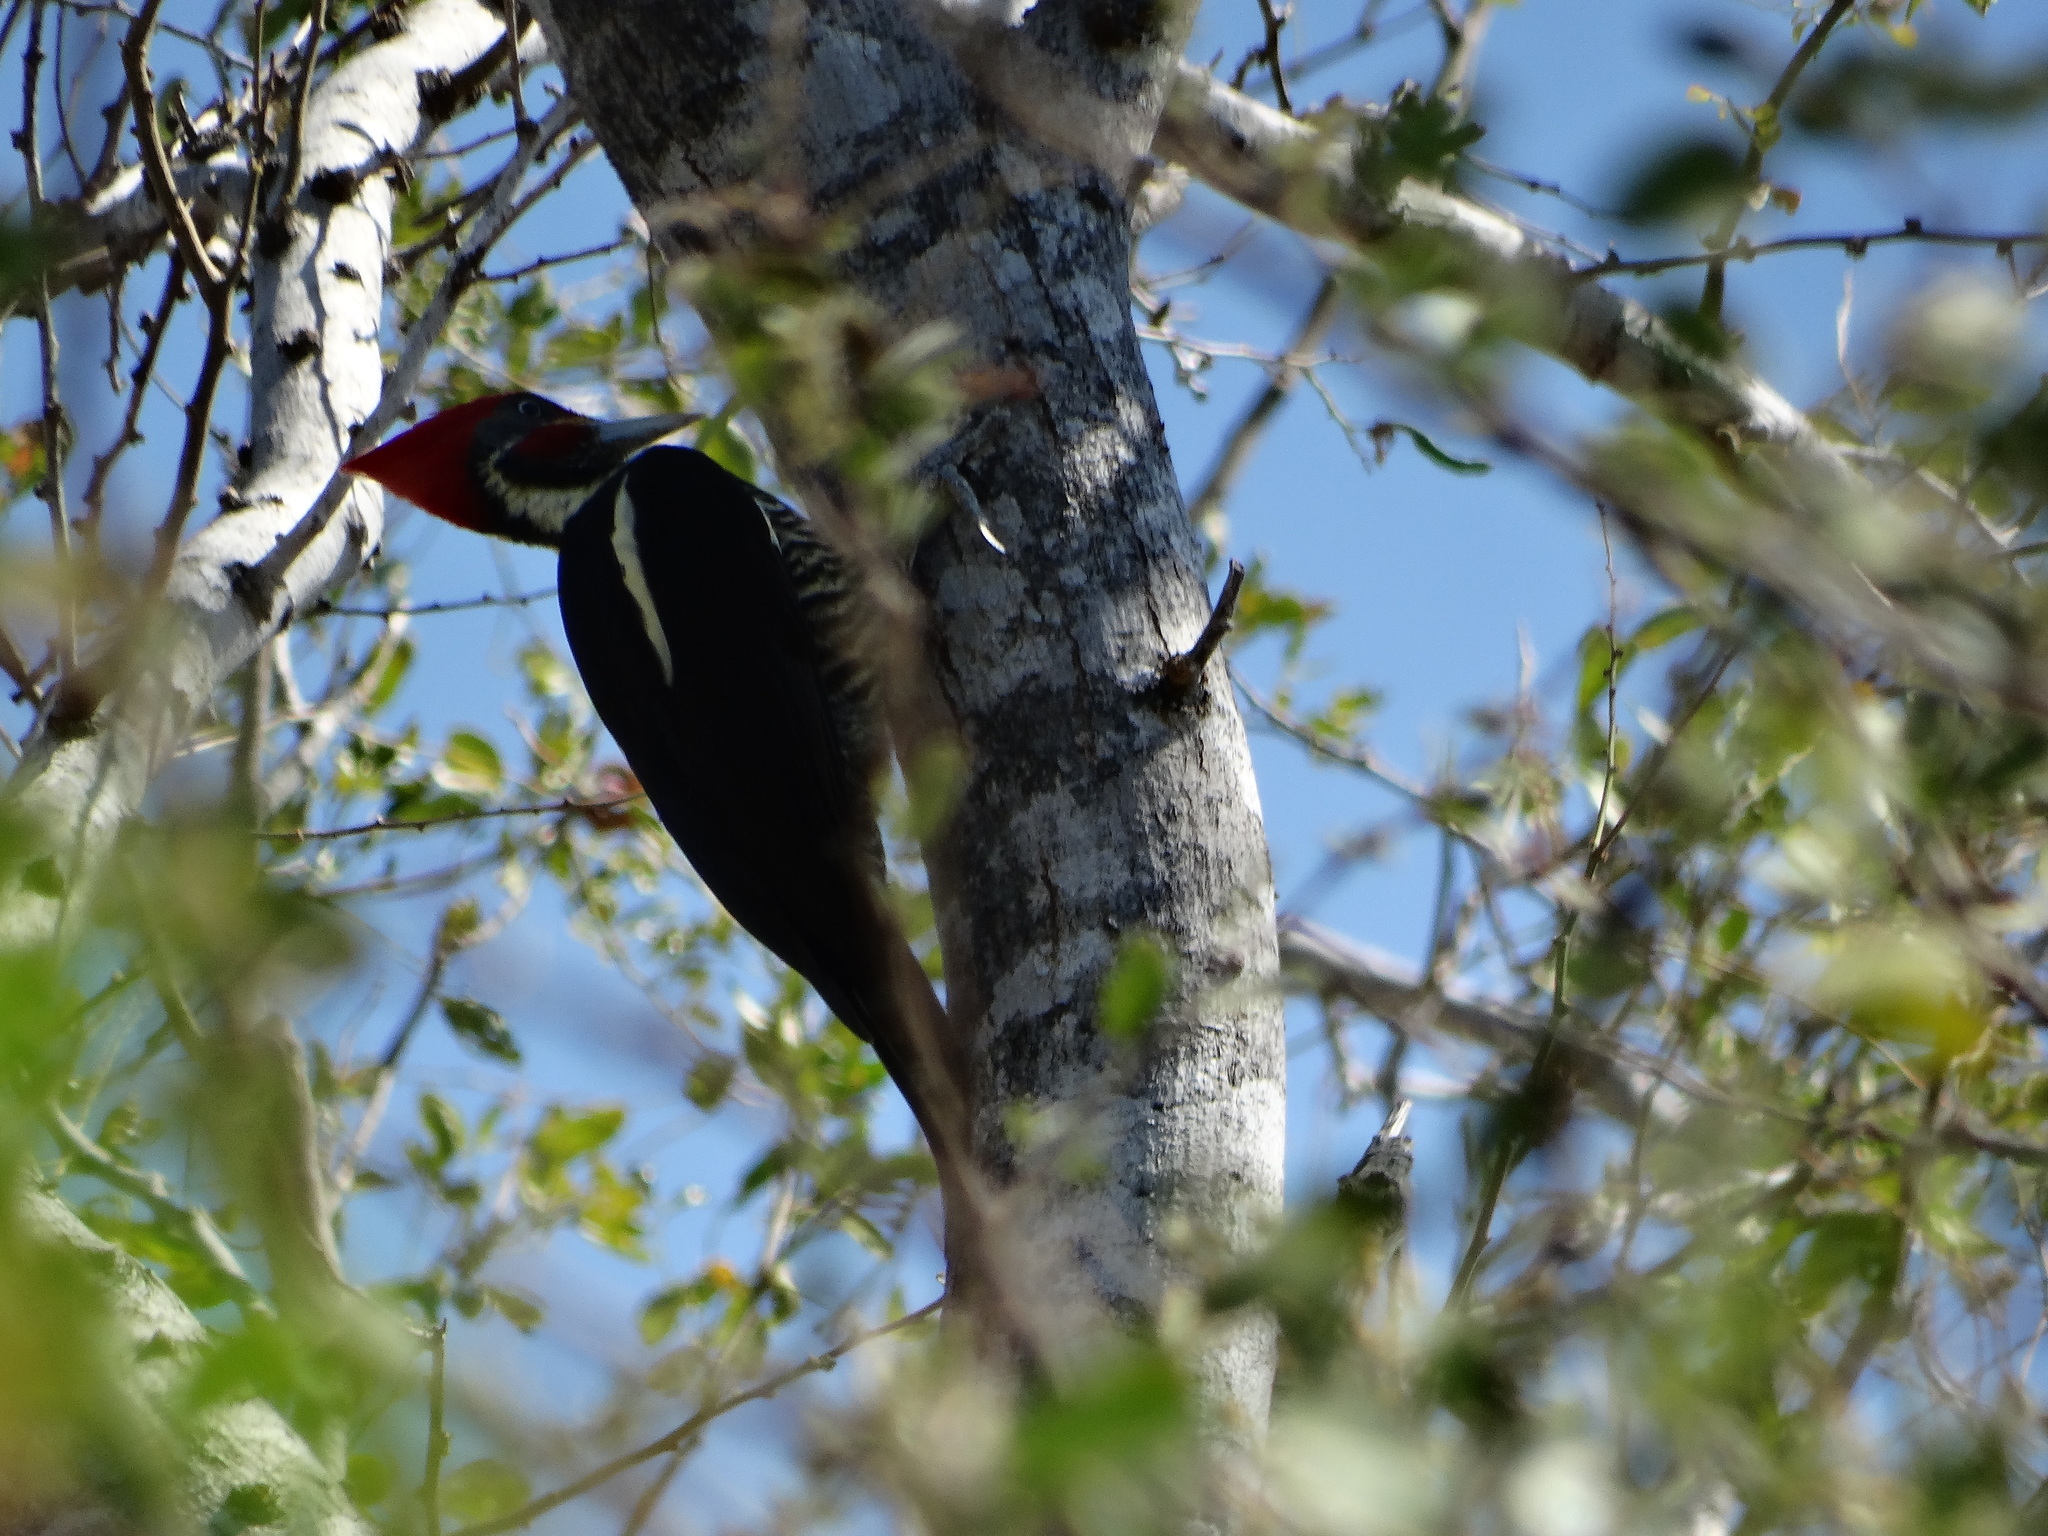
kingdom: Animalia
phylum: Chordata
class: Aves
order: Piciformes
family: Picidae
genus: Dryocopus
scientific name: Dryocopus lineatus
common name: Lineated woodpecker
